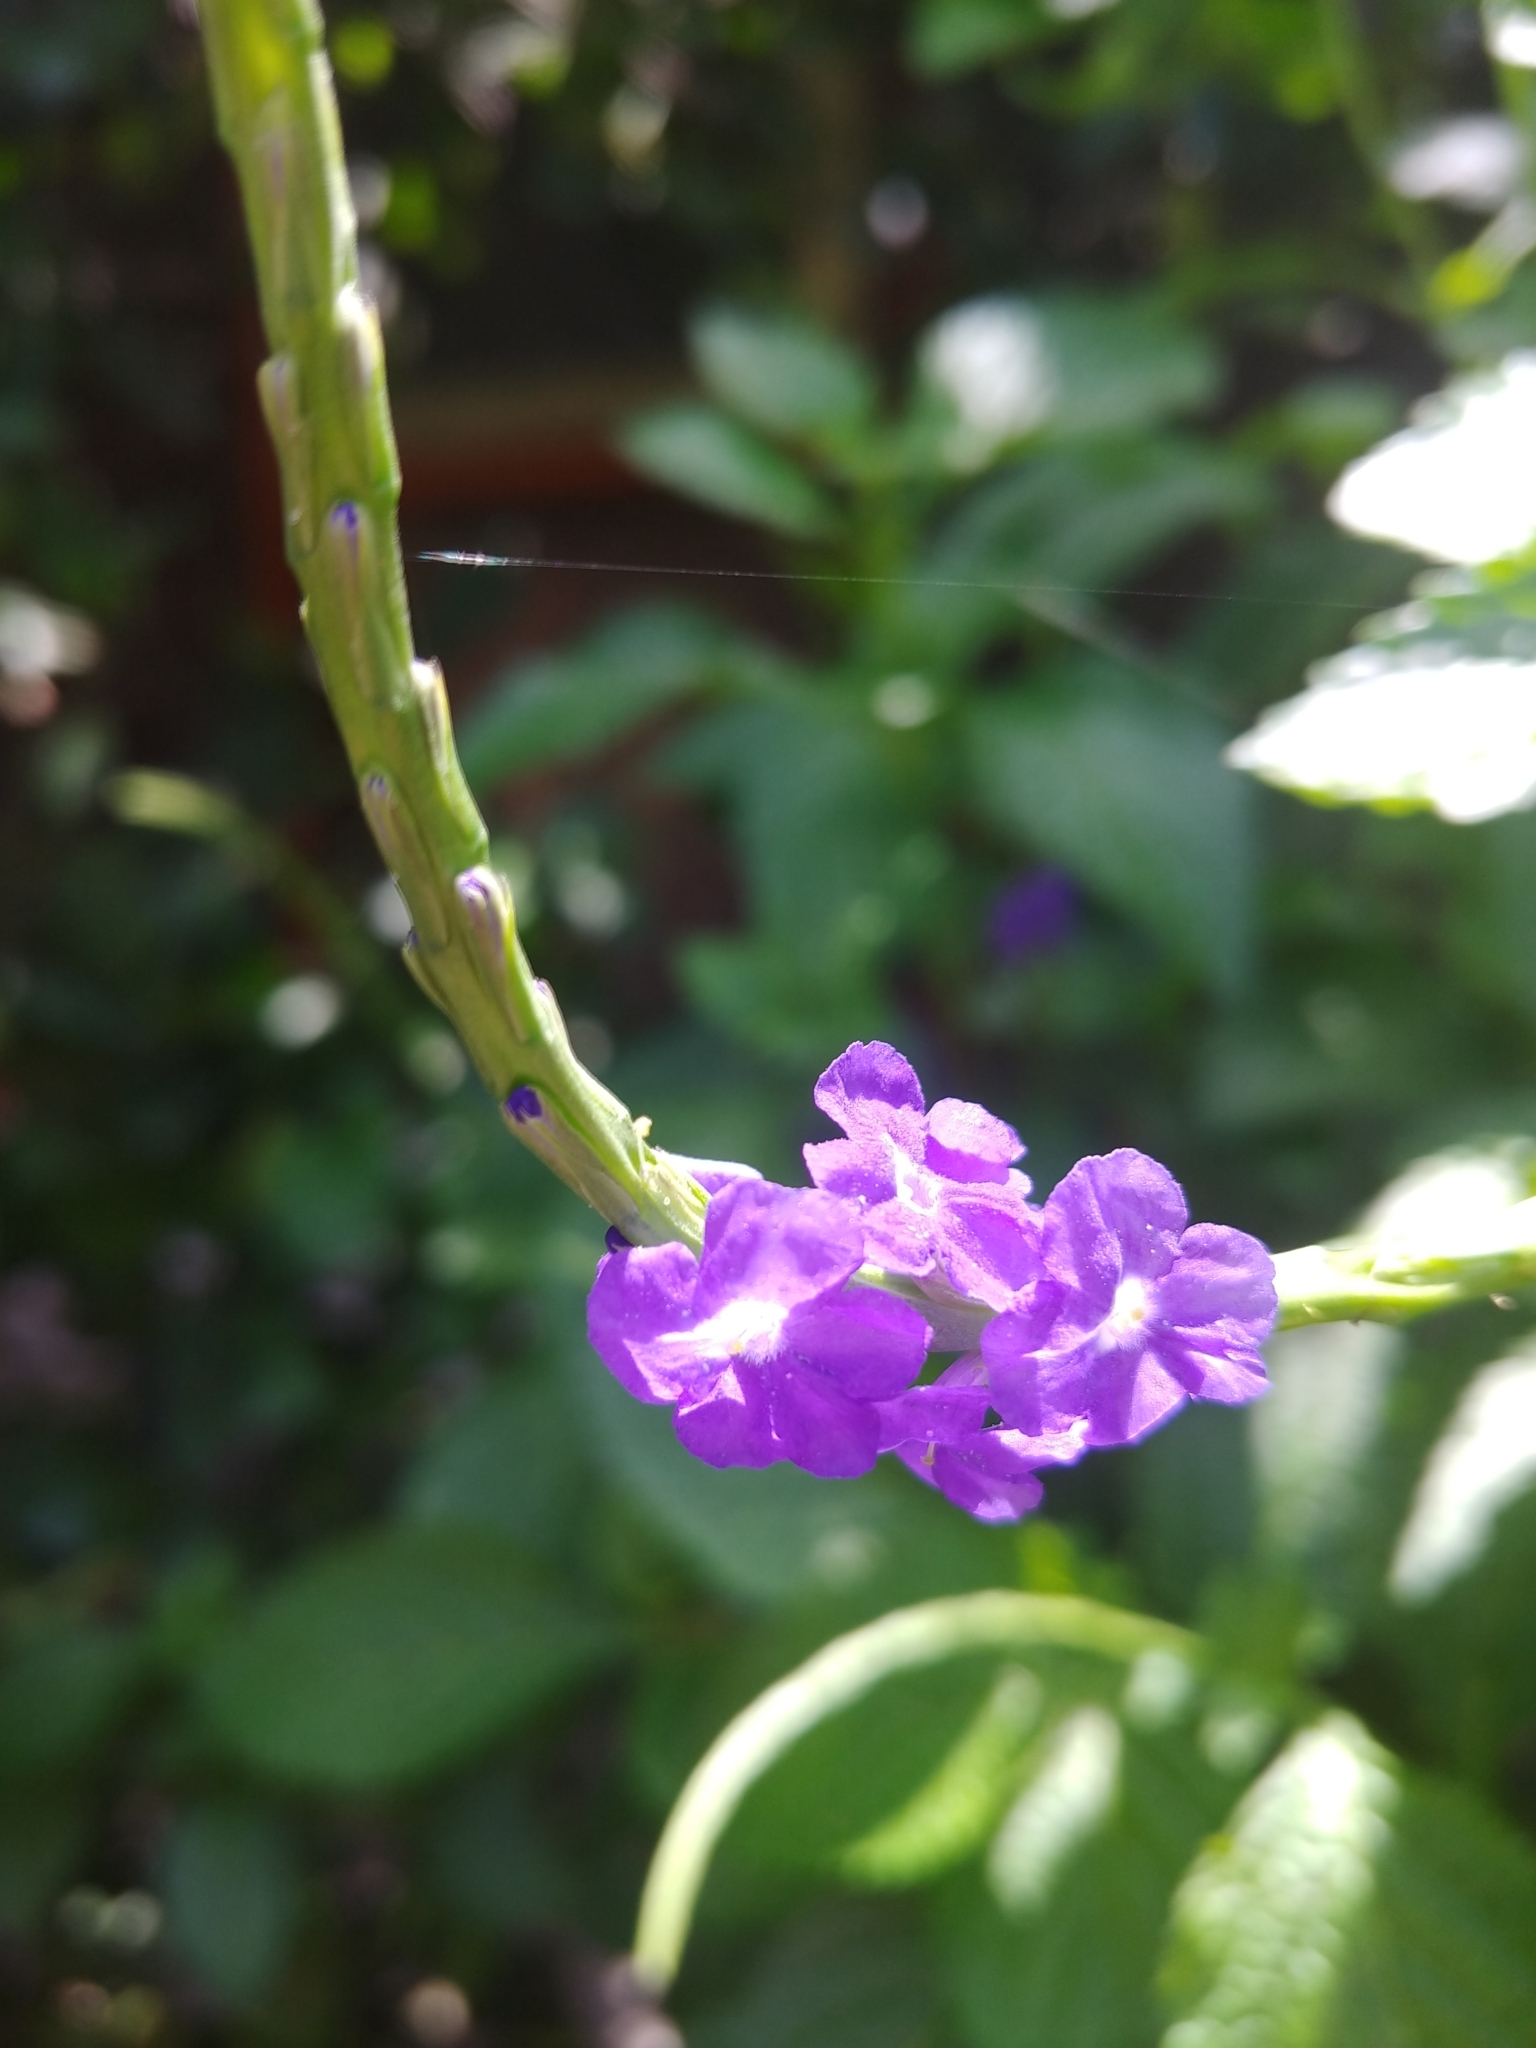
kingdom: Plantae
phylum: Tracheophyta
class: Magnoliopsida
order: Lamiales
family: Verbenaceae
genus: Stachytarpheta
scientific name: Stachytarpheta cayennensis
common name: Cayenne porterweed
